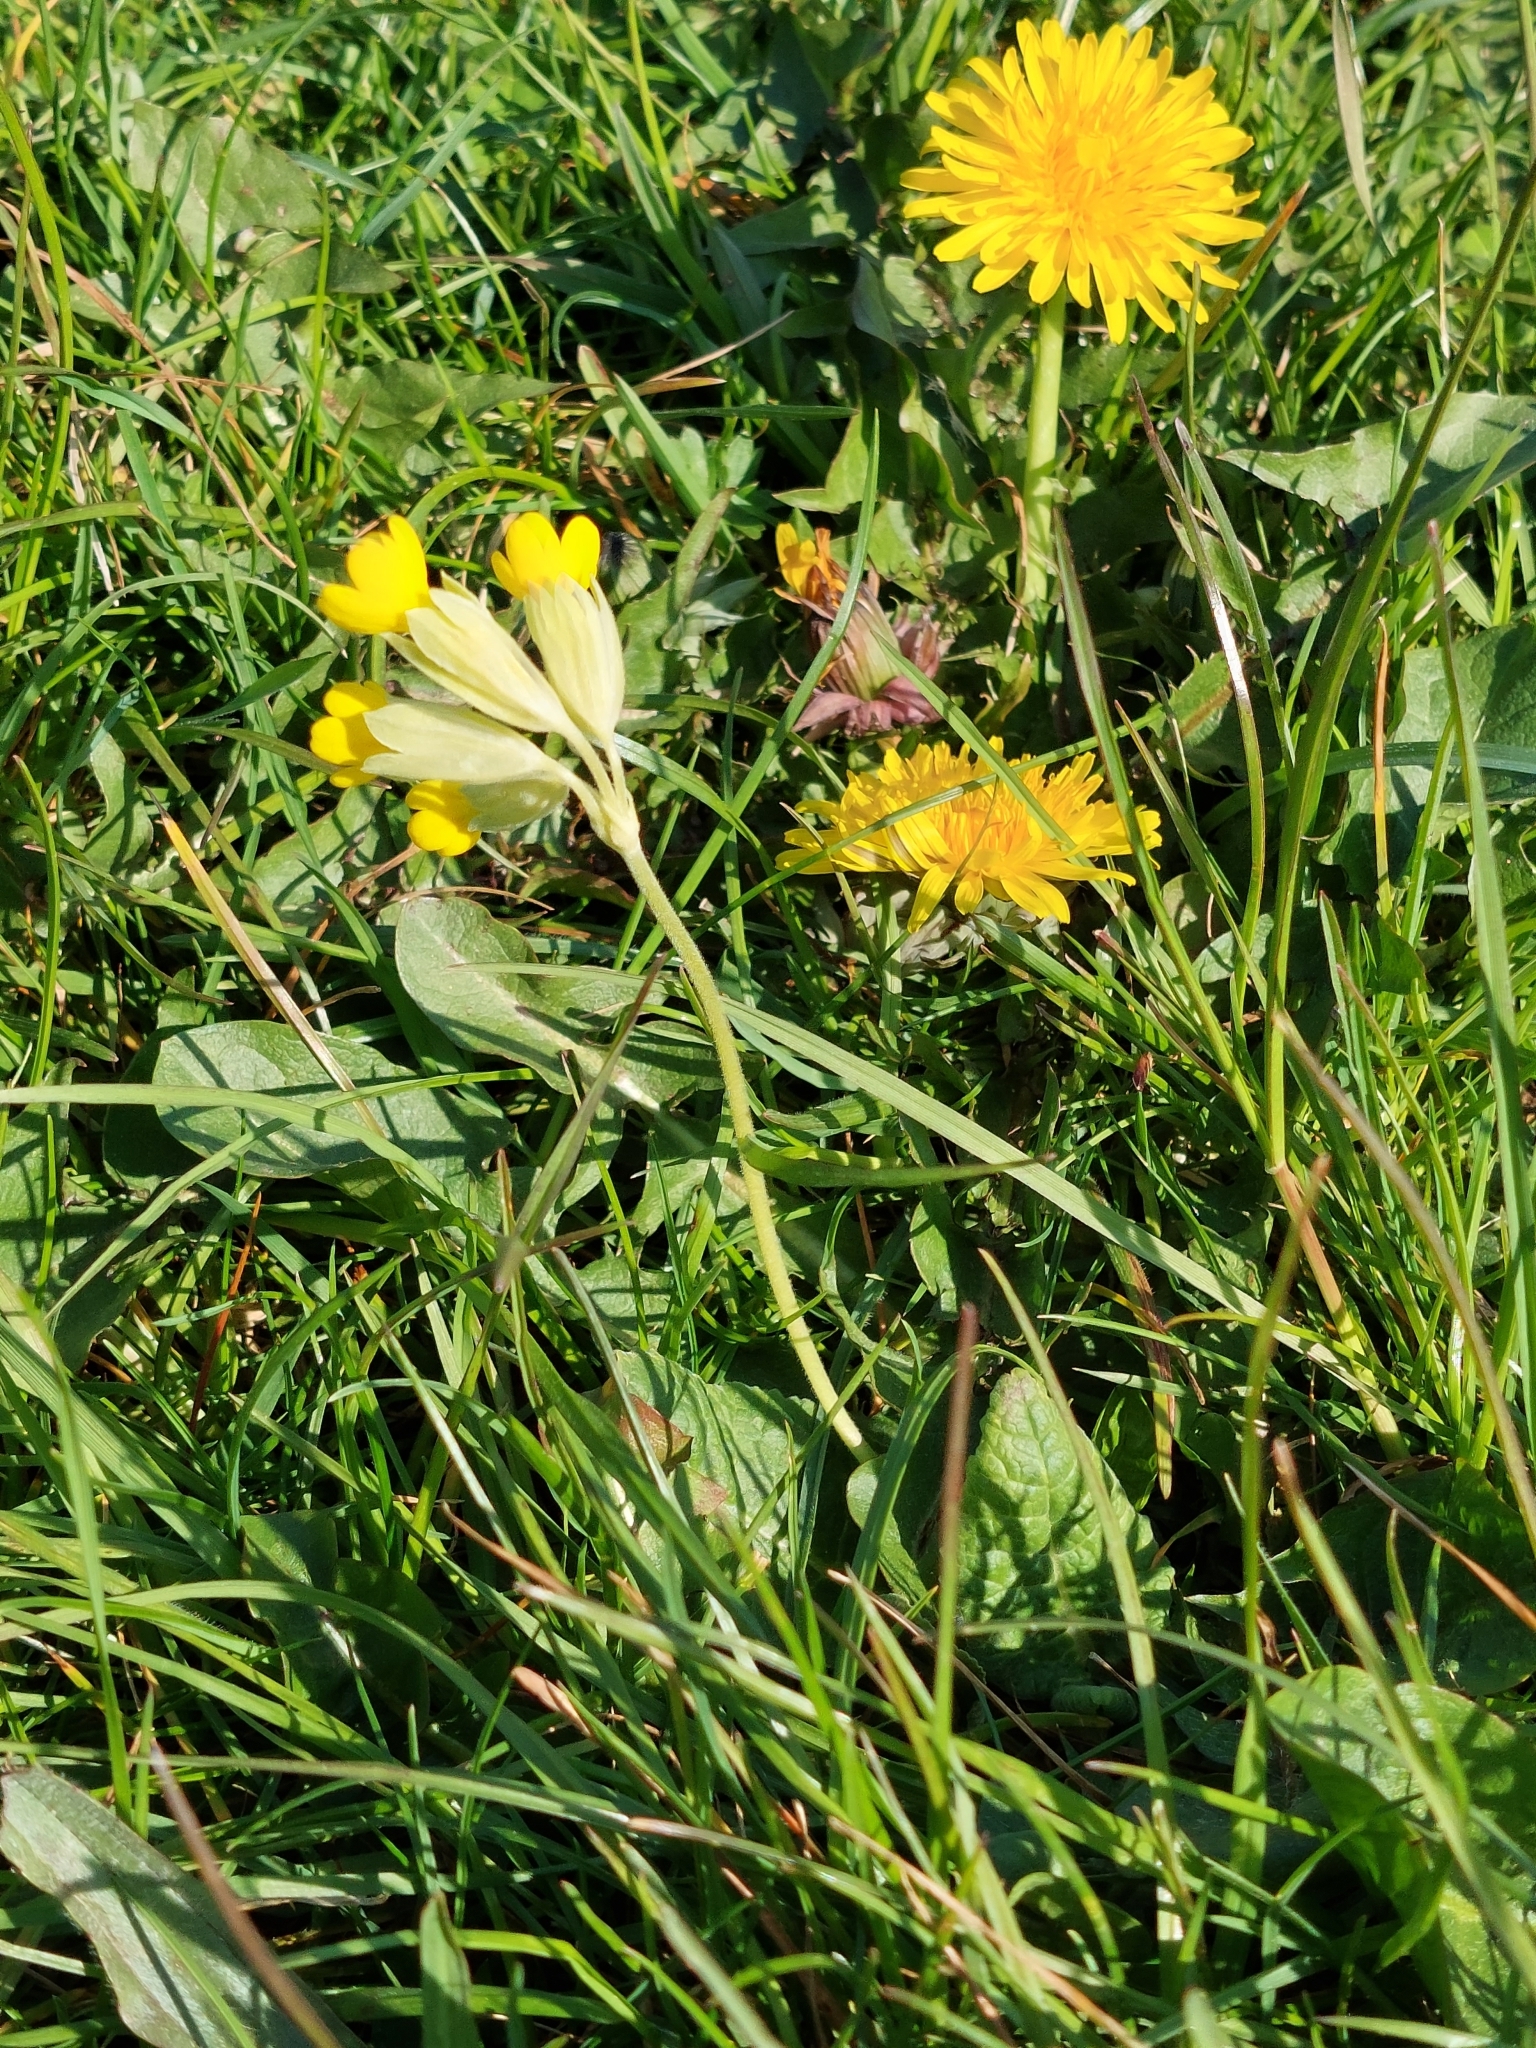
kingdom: Plantae
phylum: Tracheophyta
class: Magnoliopsida
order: Ericales
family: Primulaceae
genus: Primula
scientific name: Primula veris
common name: Cowslip
